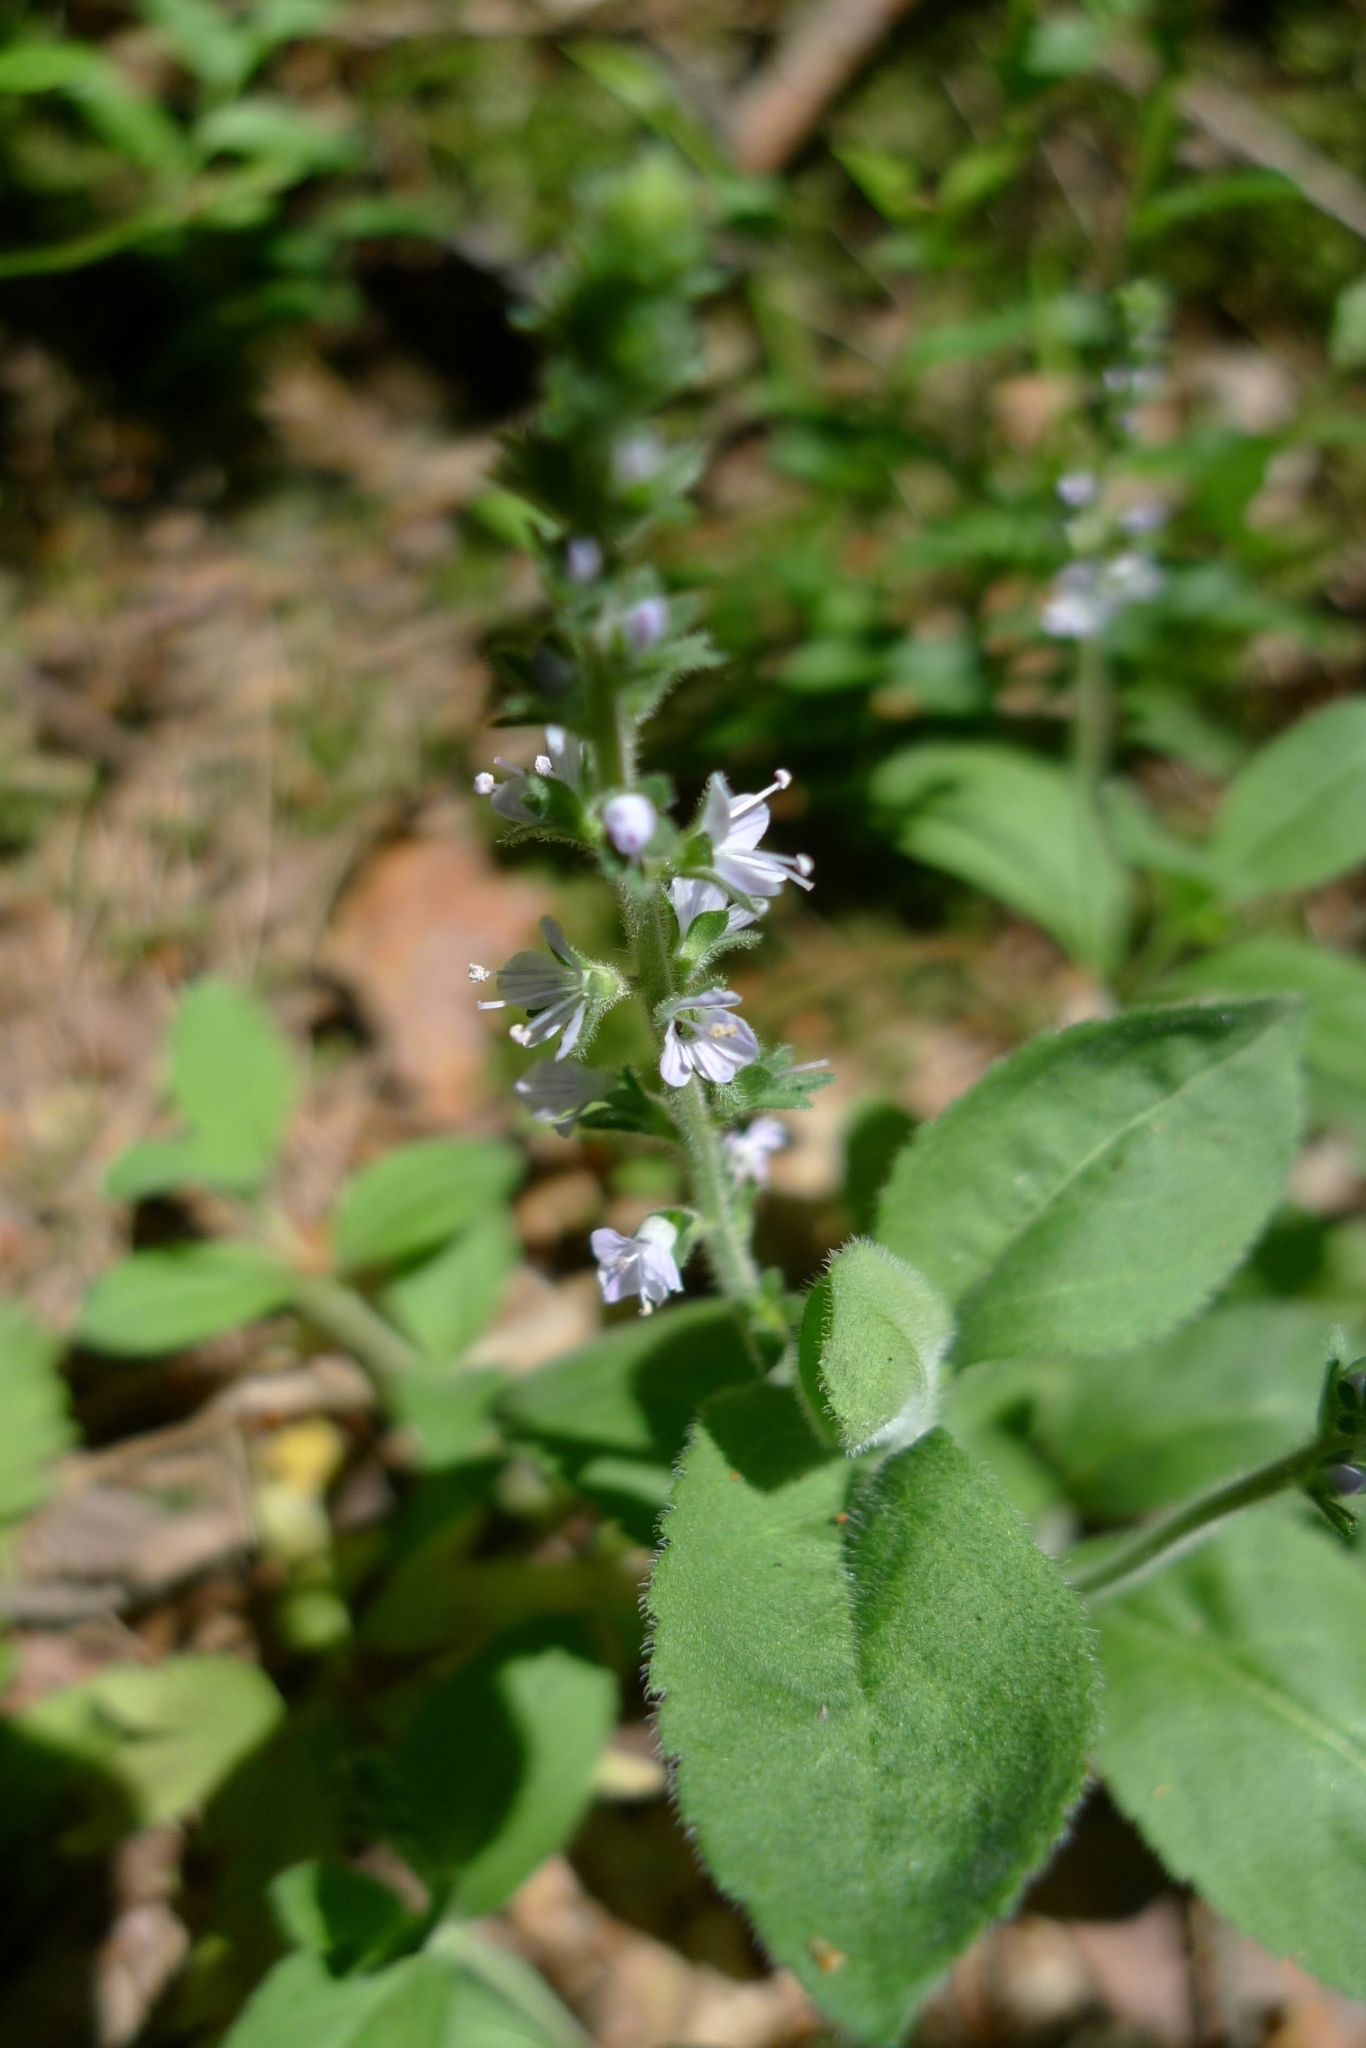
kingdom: Plantae
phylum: Tracheophyta
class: Magnoliopsida
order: Lamiales
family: Plantaginaceae
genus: Veronica
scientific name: Veronica officinalis
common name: Common speedwell
